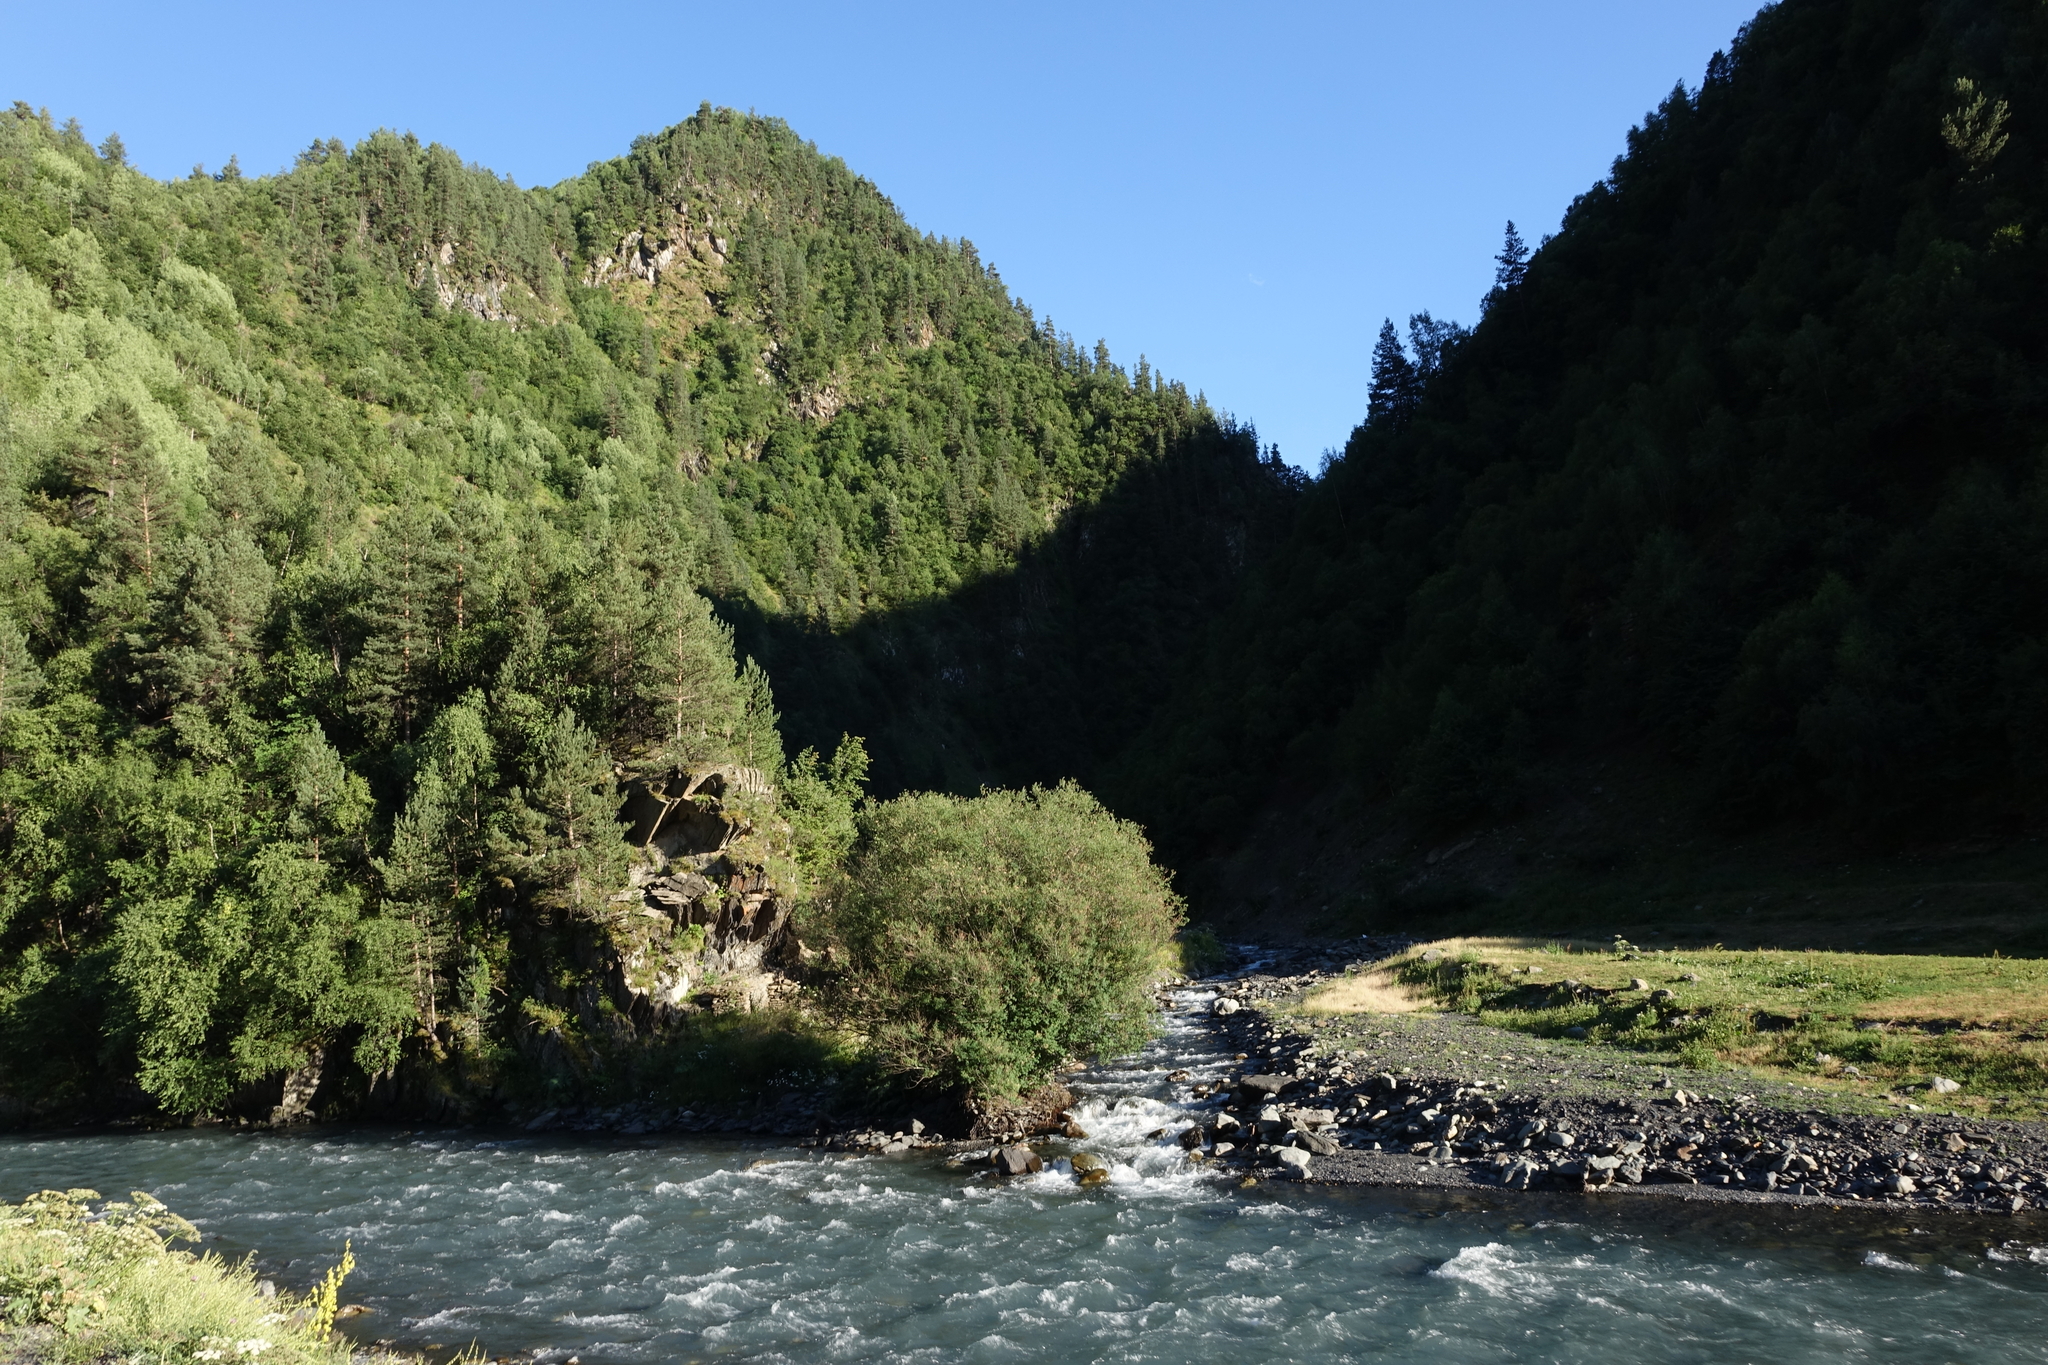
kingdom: Plantae
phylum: Tracheophyta
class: Pinopsida
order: Pinales
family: Pinaceae
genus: Pinus
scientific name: Pinus sylvestris
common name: Scots pine
